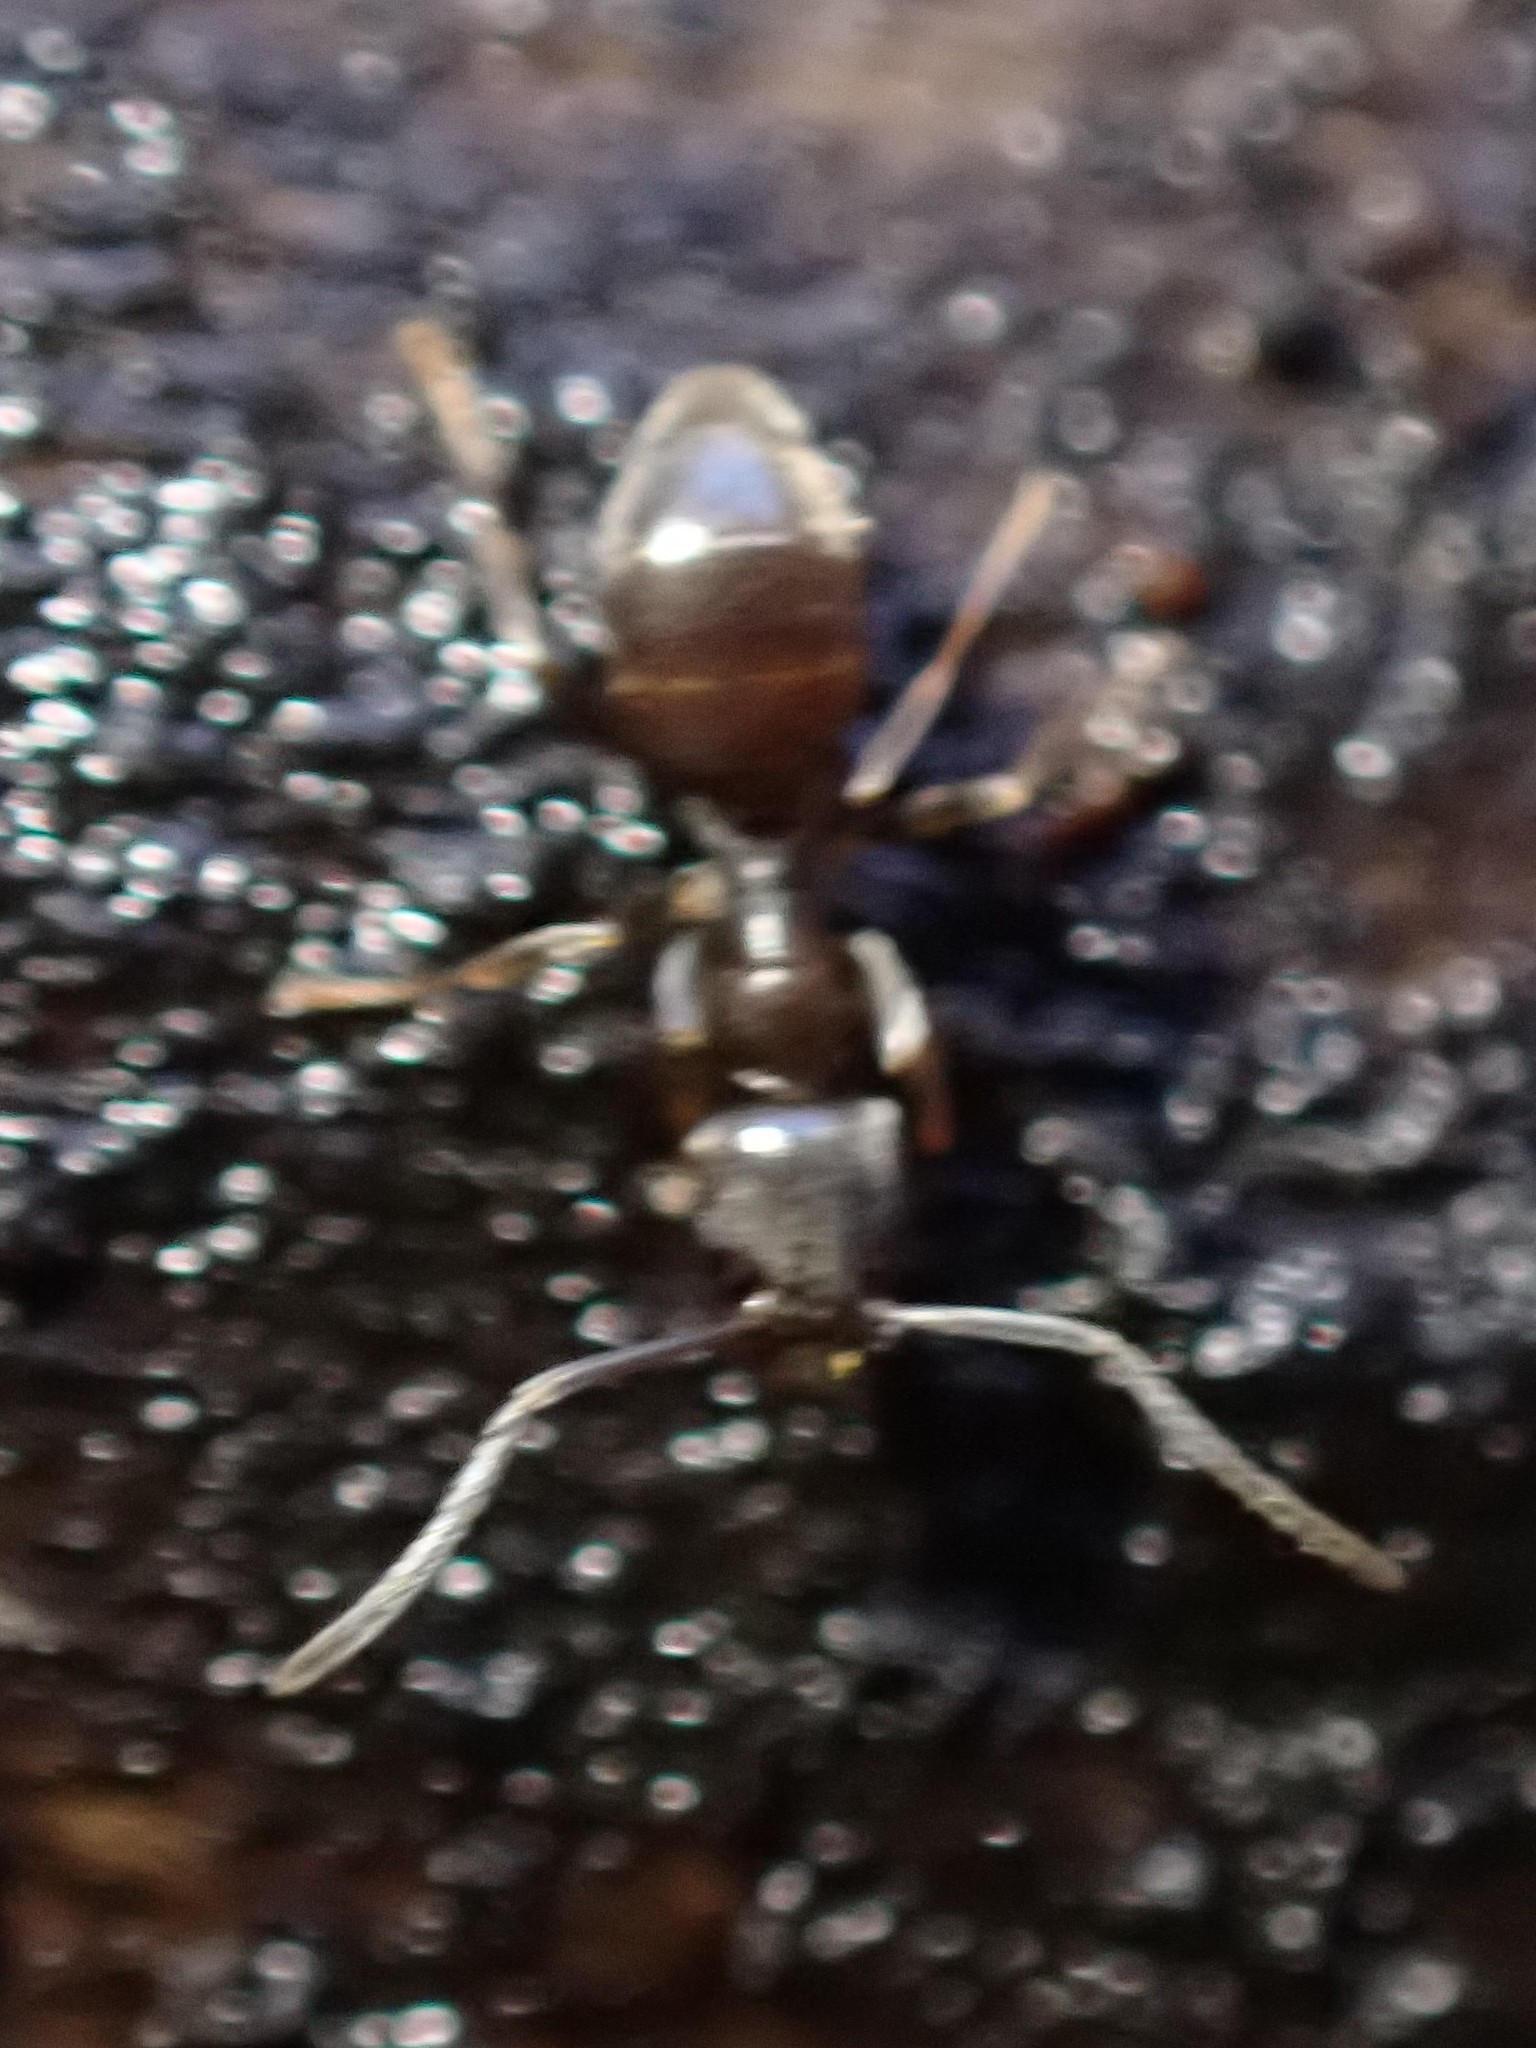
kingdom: Animalia
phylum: Arthropoda
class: Insecta
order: Hymenoptera
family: Formicidae
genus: Lasius
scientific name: Lasius americanus
